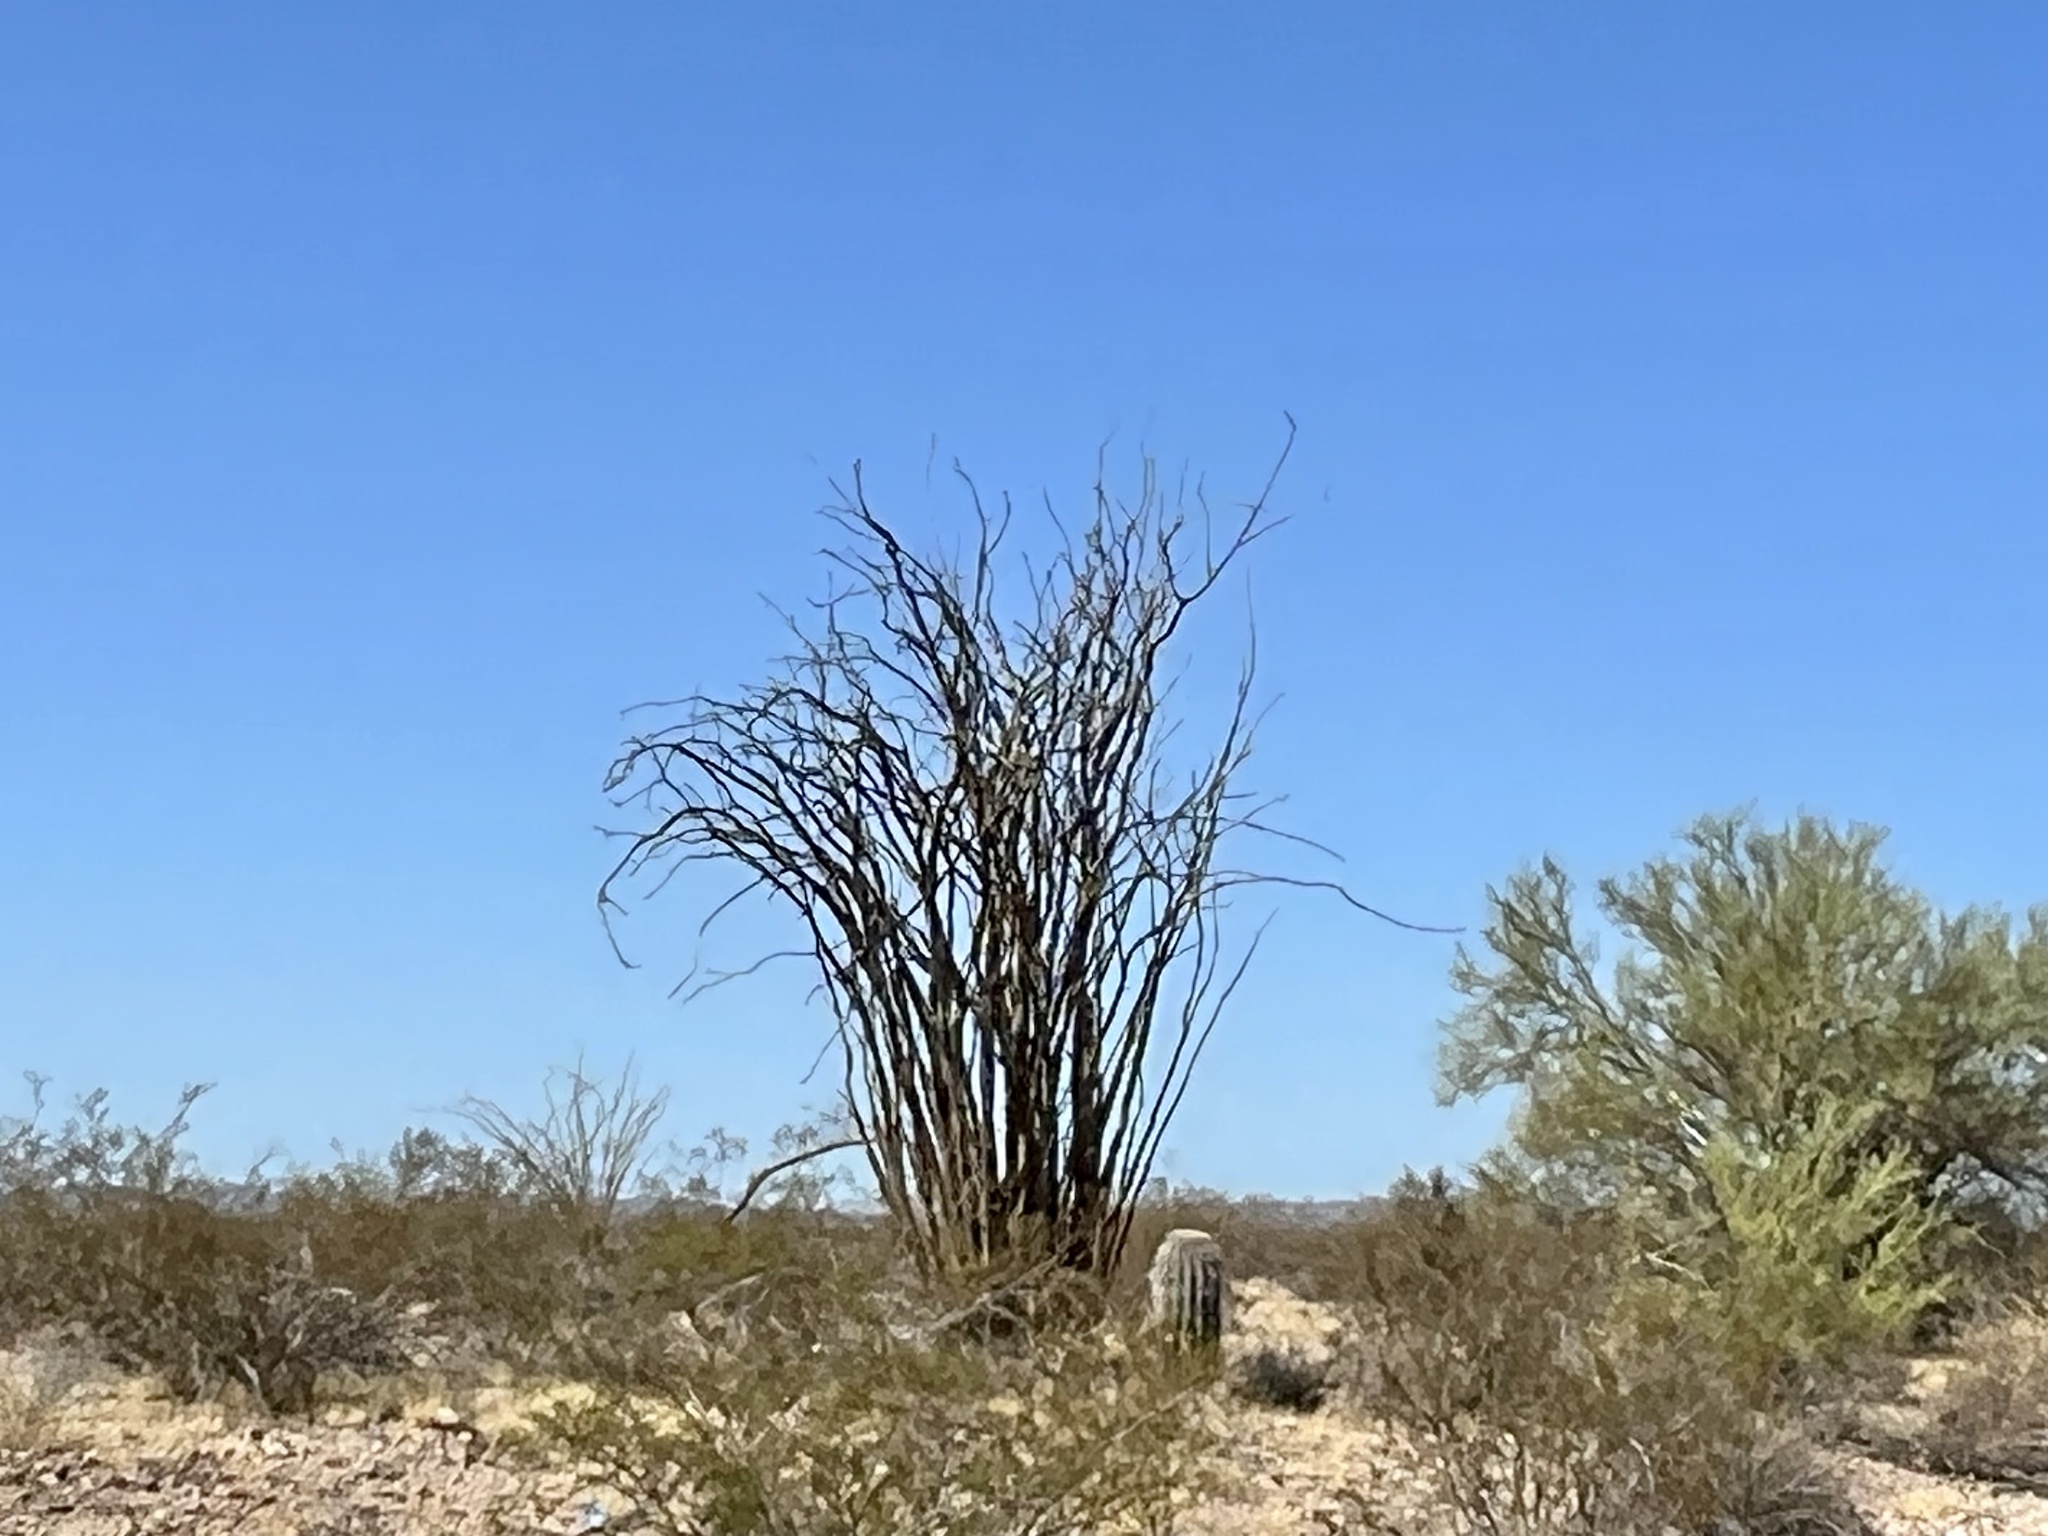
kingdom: Plantae
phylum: Tracheophyta
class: Magnoliopsida
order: Ericales
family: Fouquieriaceae
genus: Fouquieria
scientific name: Fouquieria splendens
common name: Vine-cactus
